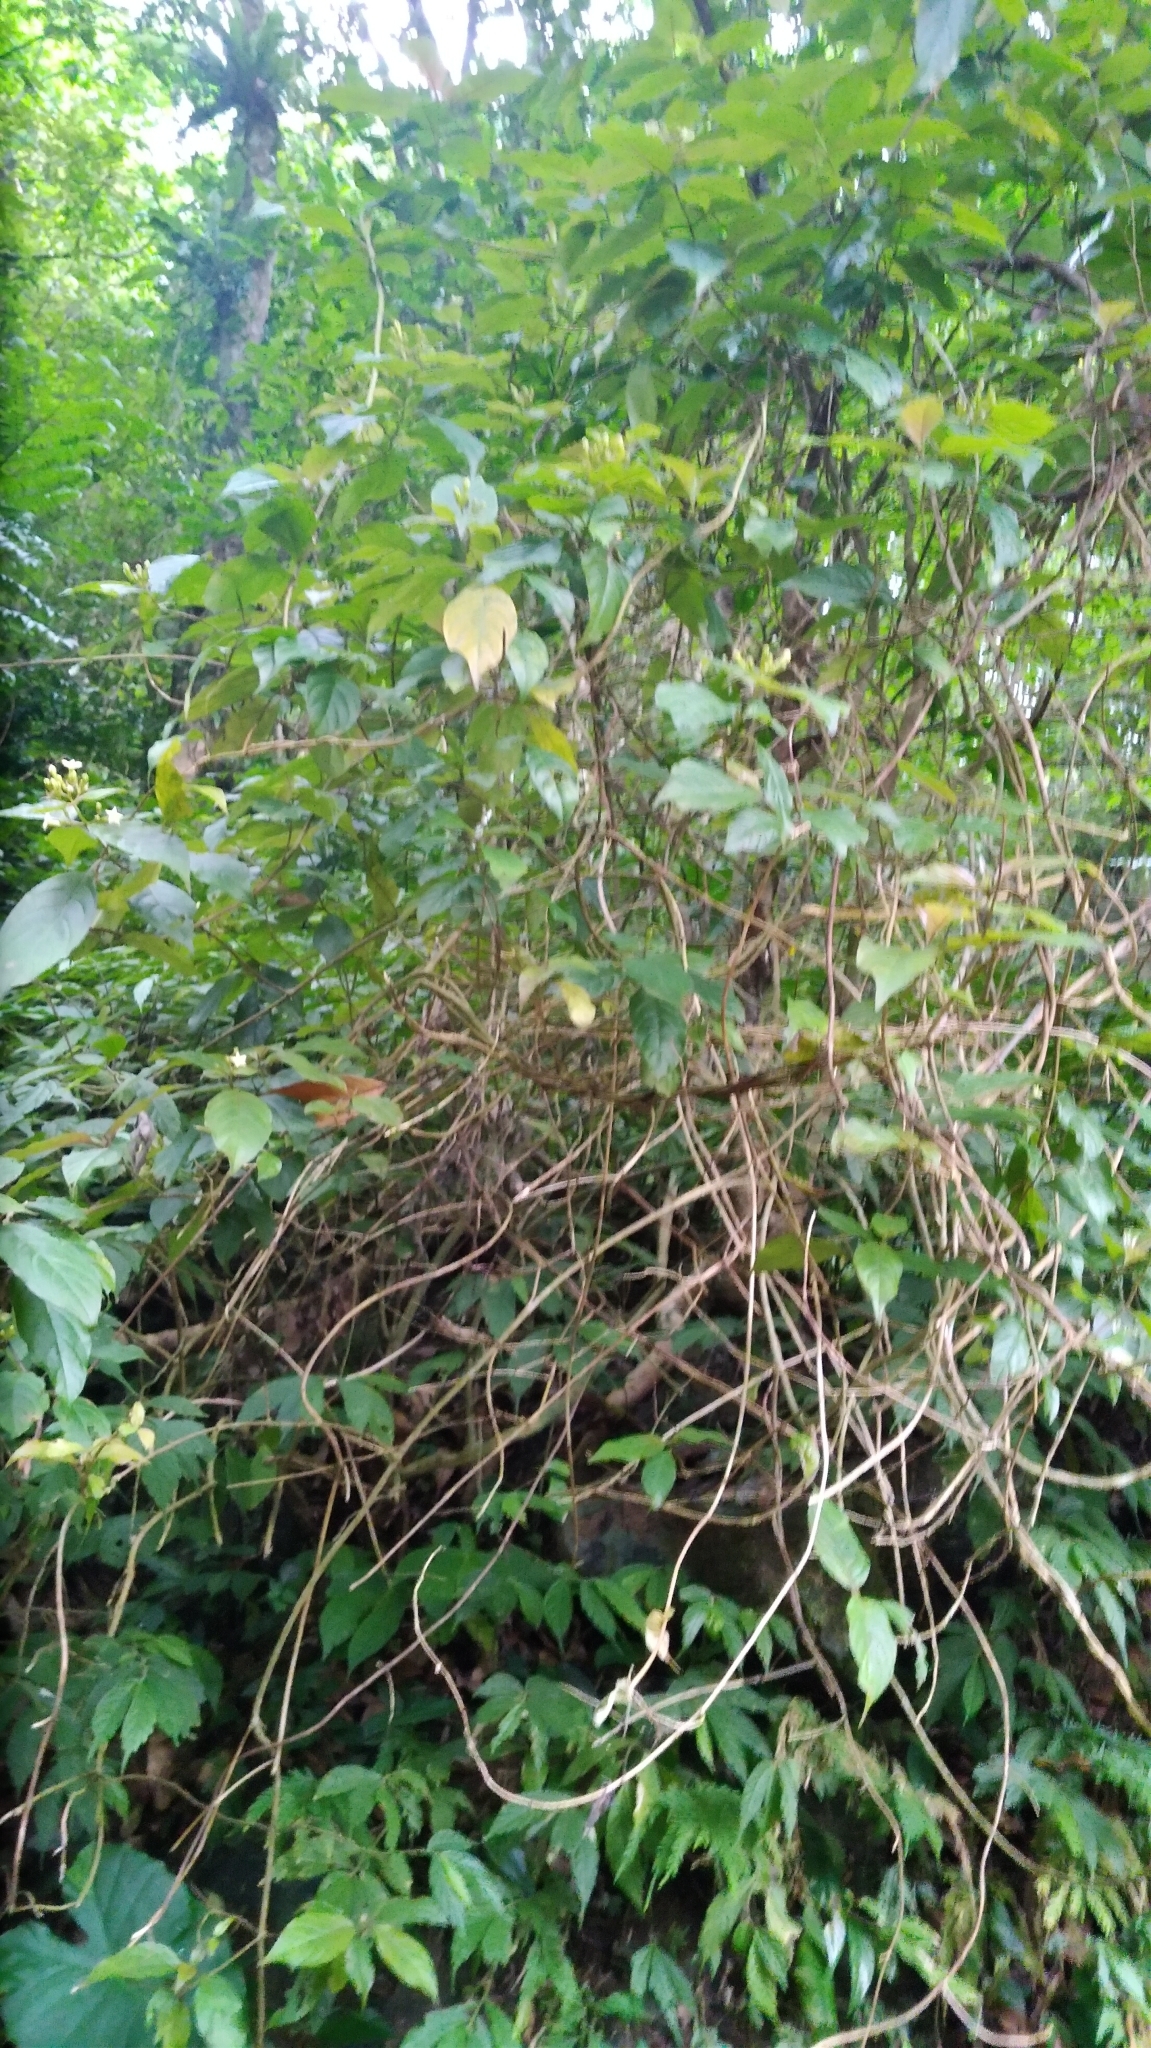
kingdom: Plantae
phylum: Tracheophyta
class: Magnoliopsida
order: Gentianales
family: Rubiaceae
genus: Mussaenda
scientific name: Mussaenda parviflora
